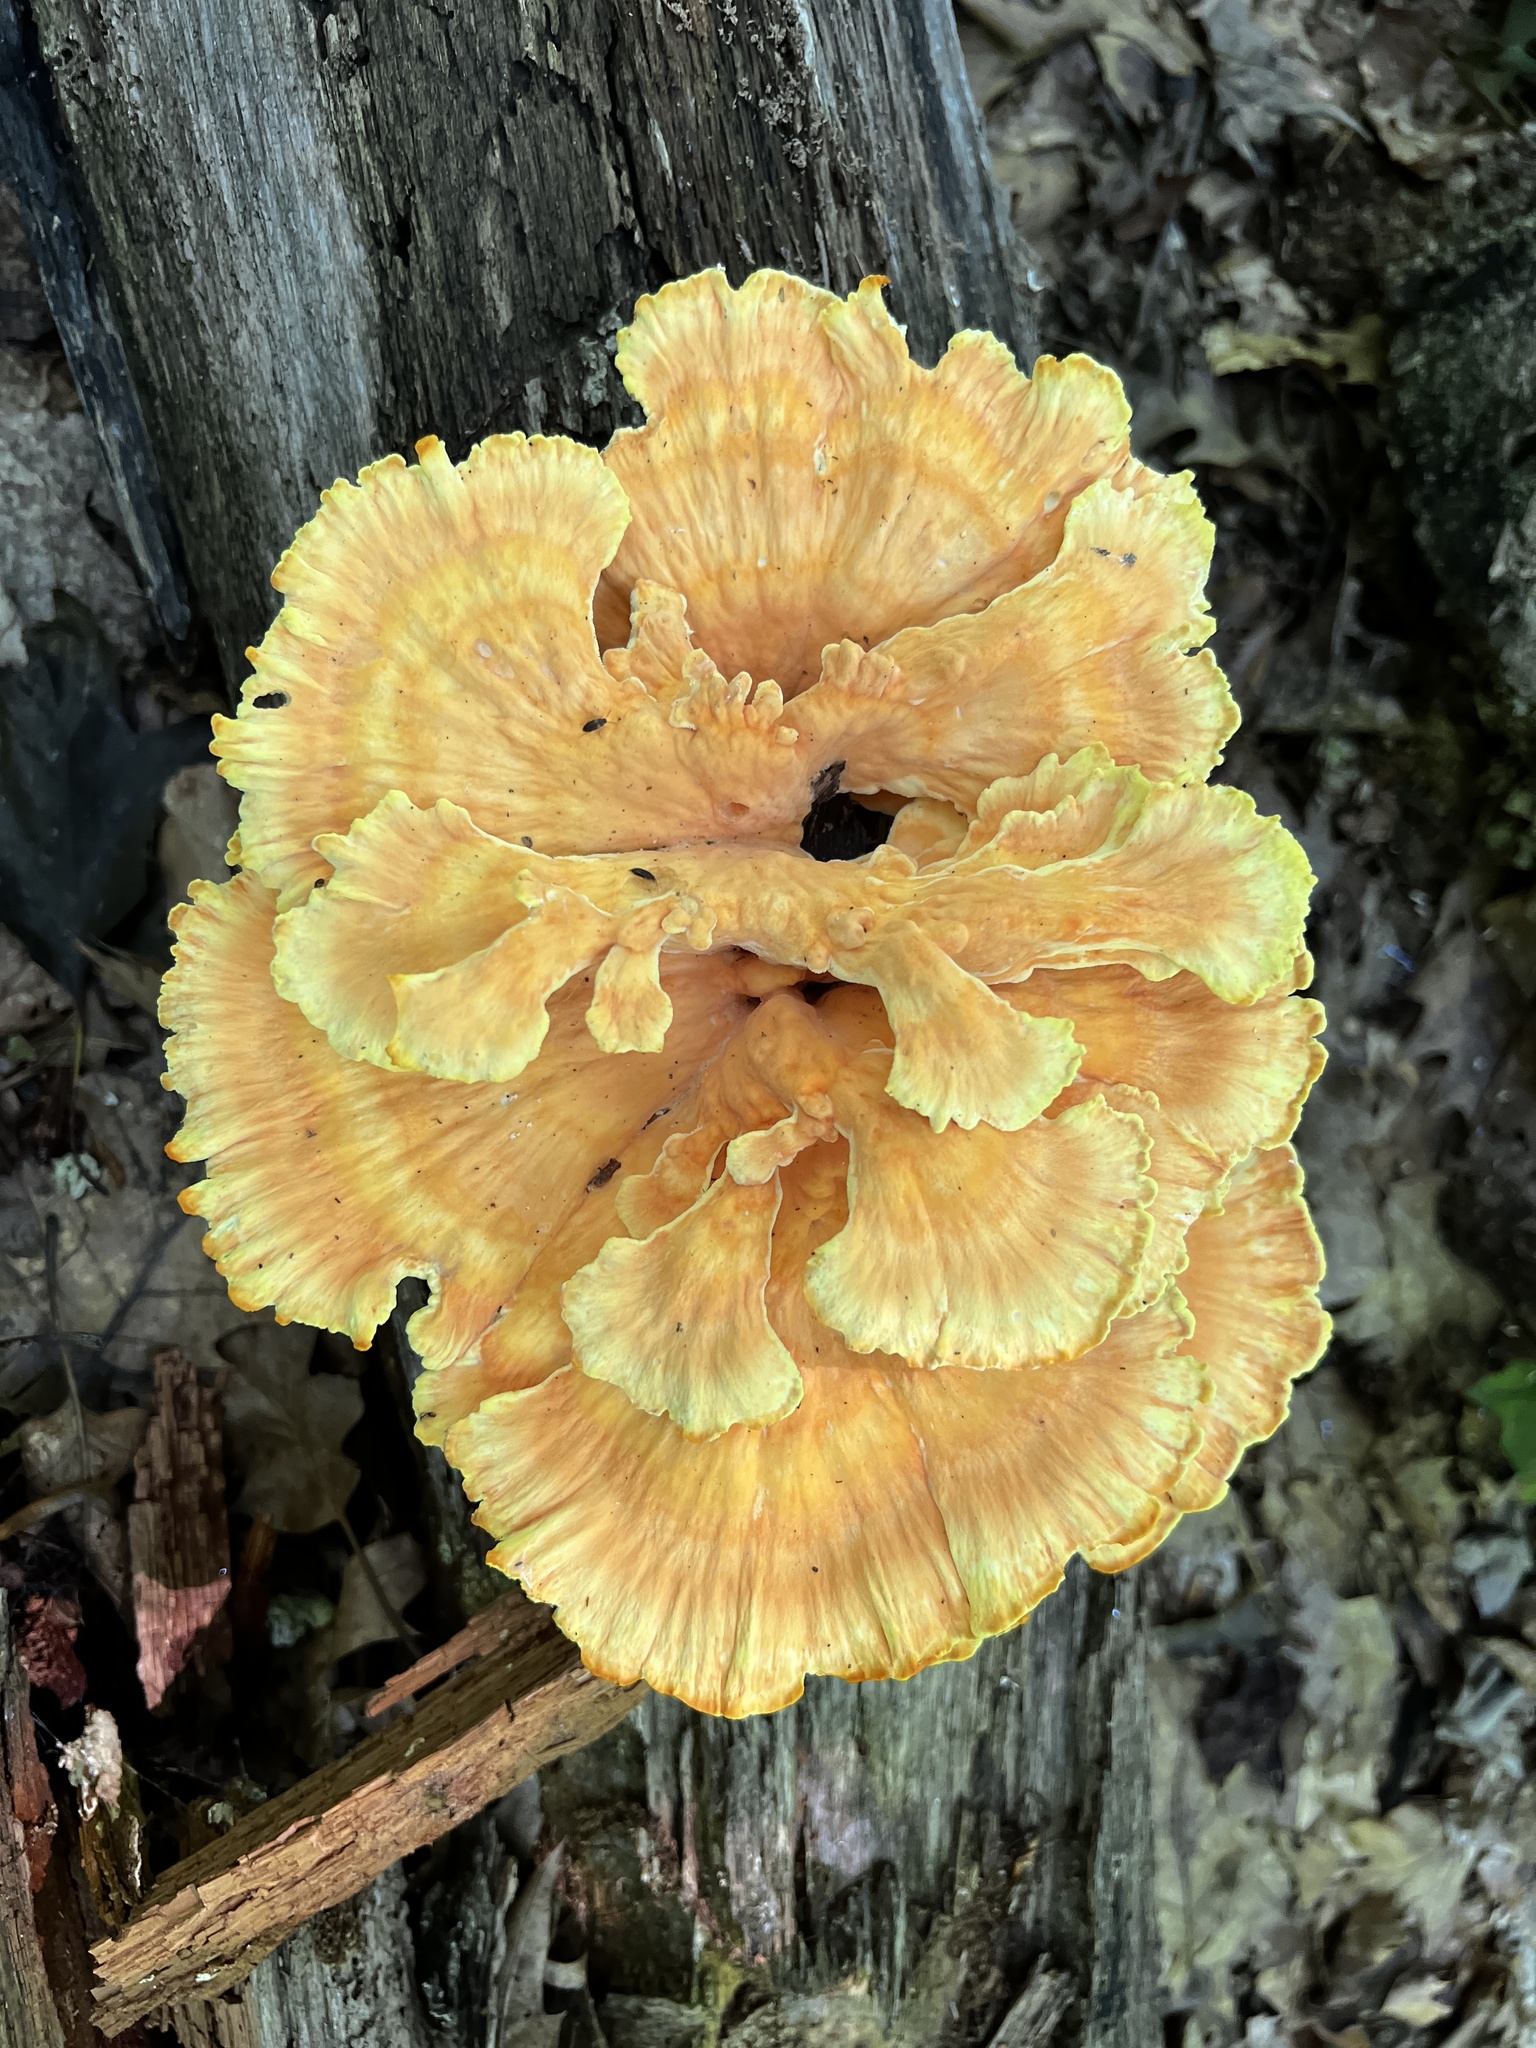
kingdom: Fungi
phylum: Basidiomycota
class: Agaricomycetes
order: Polyporales
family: Laetiporaceae
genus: Laetiporus
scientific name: Laetiporus sulphureus
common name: Chicken of the woods
